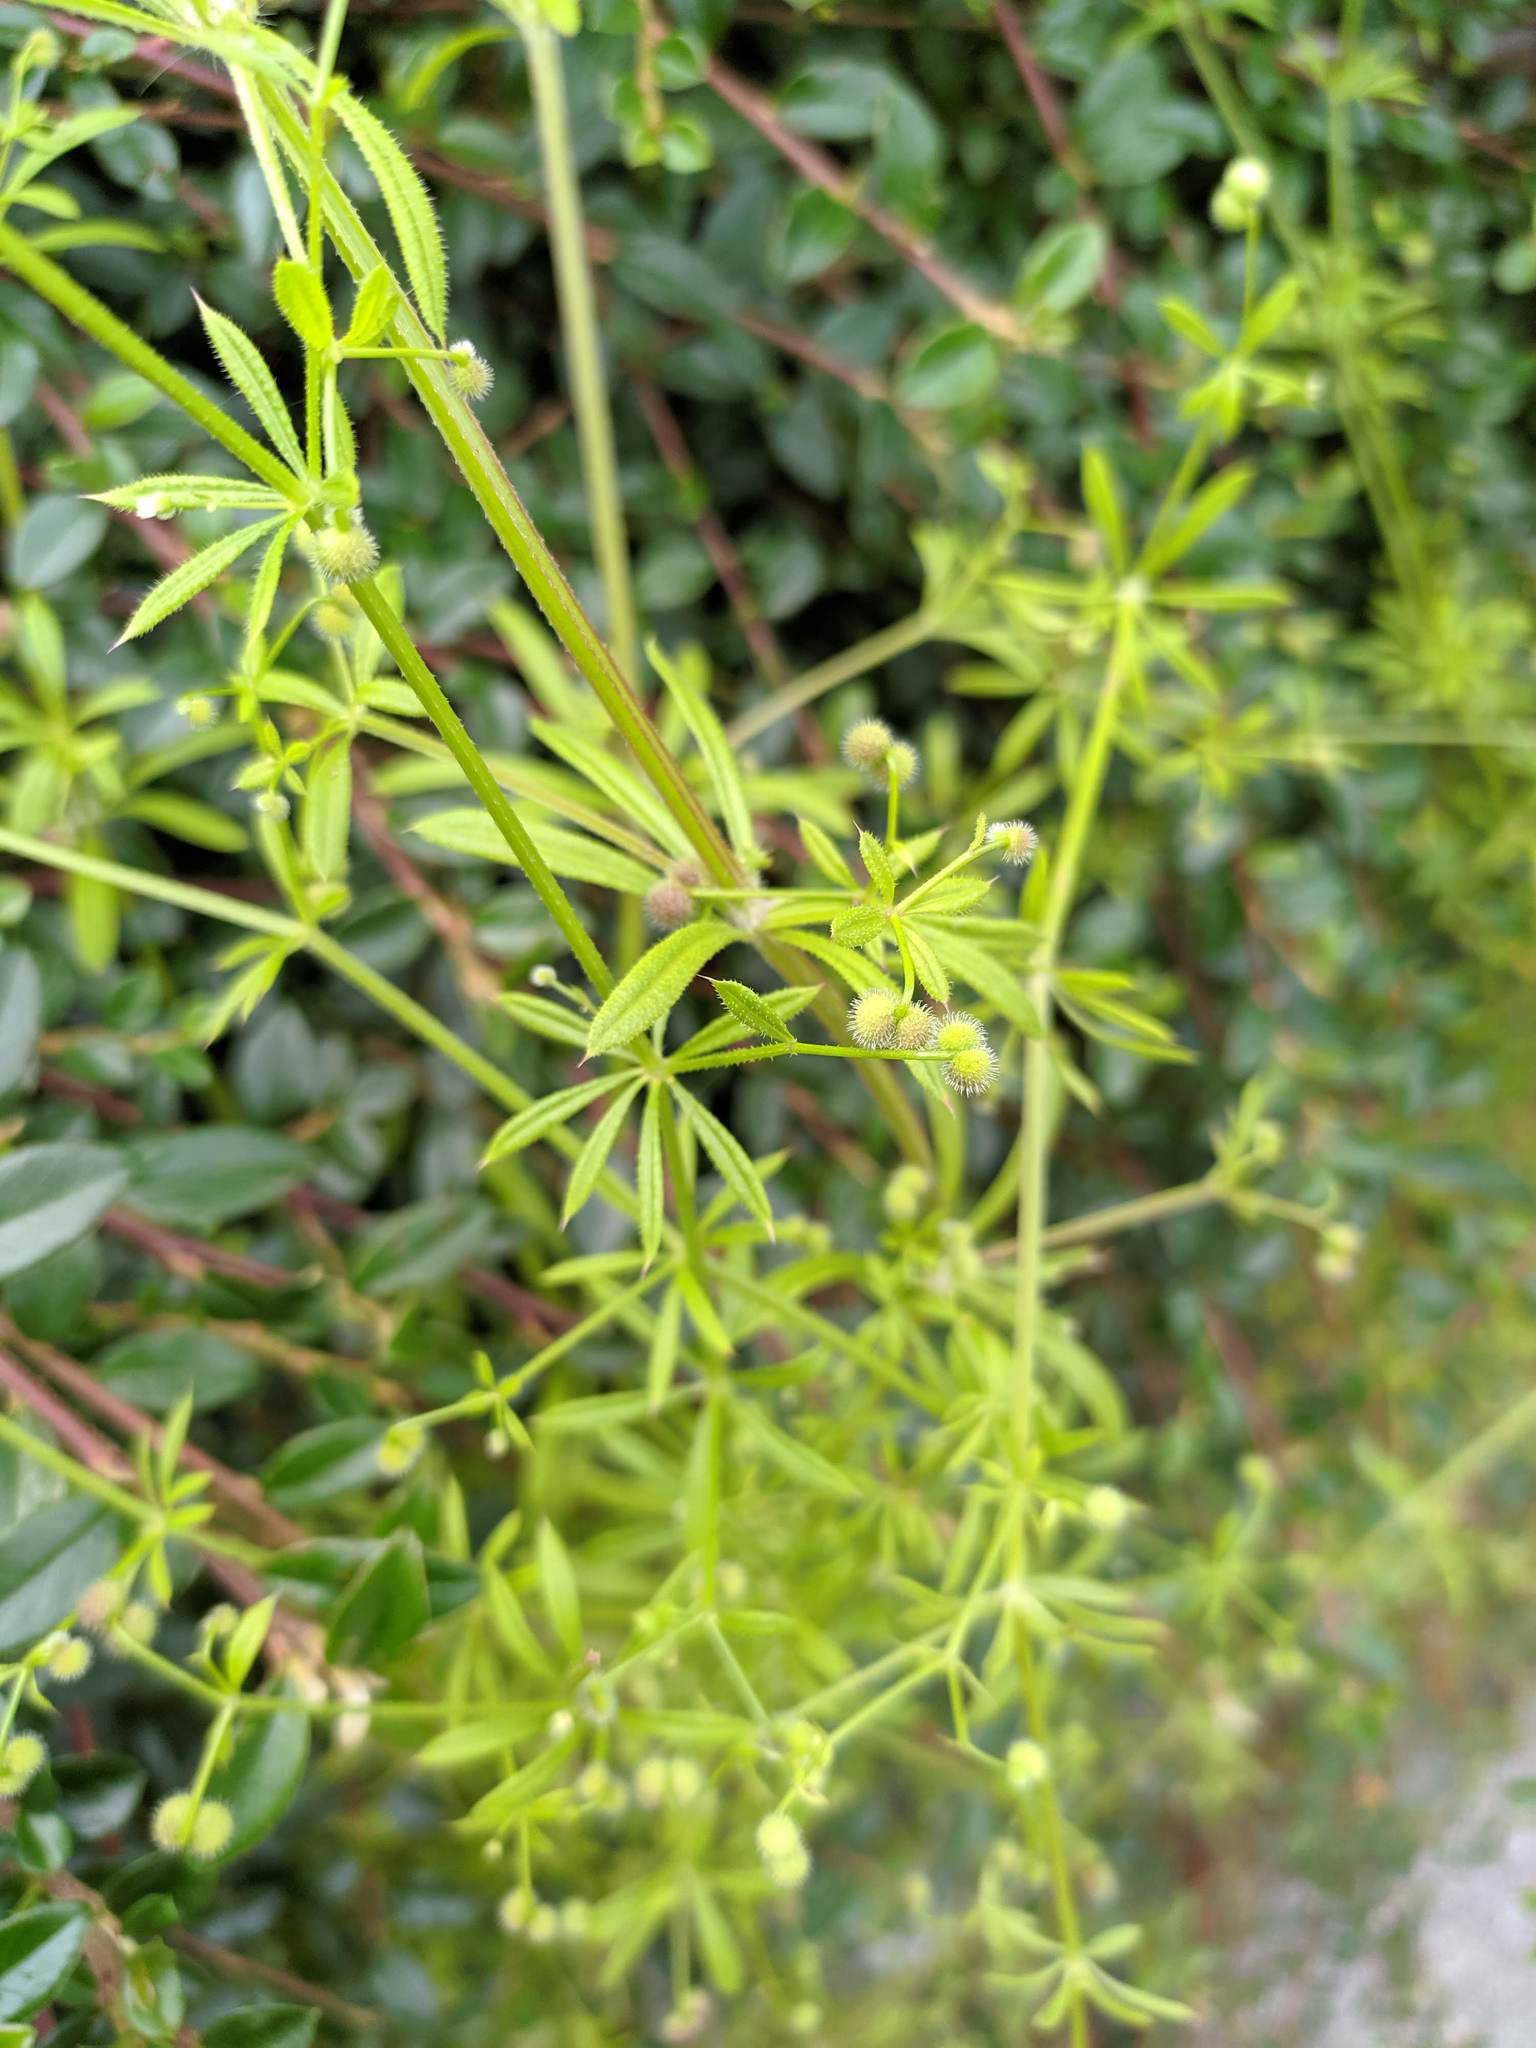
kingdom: Plantae
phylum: Tracheophyta
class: Magnoliopsida
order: Gentianales
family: Rubiaceae
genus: Galium
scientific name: Galium aparine
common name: Cleavers
